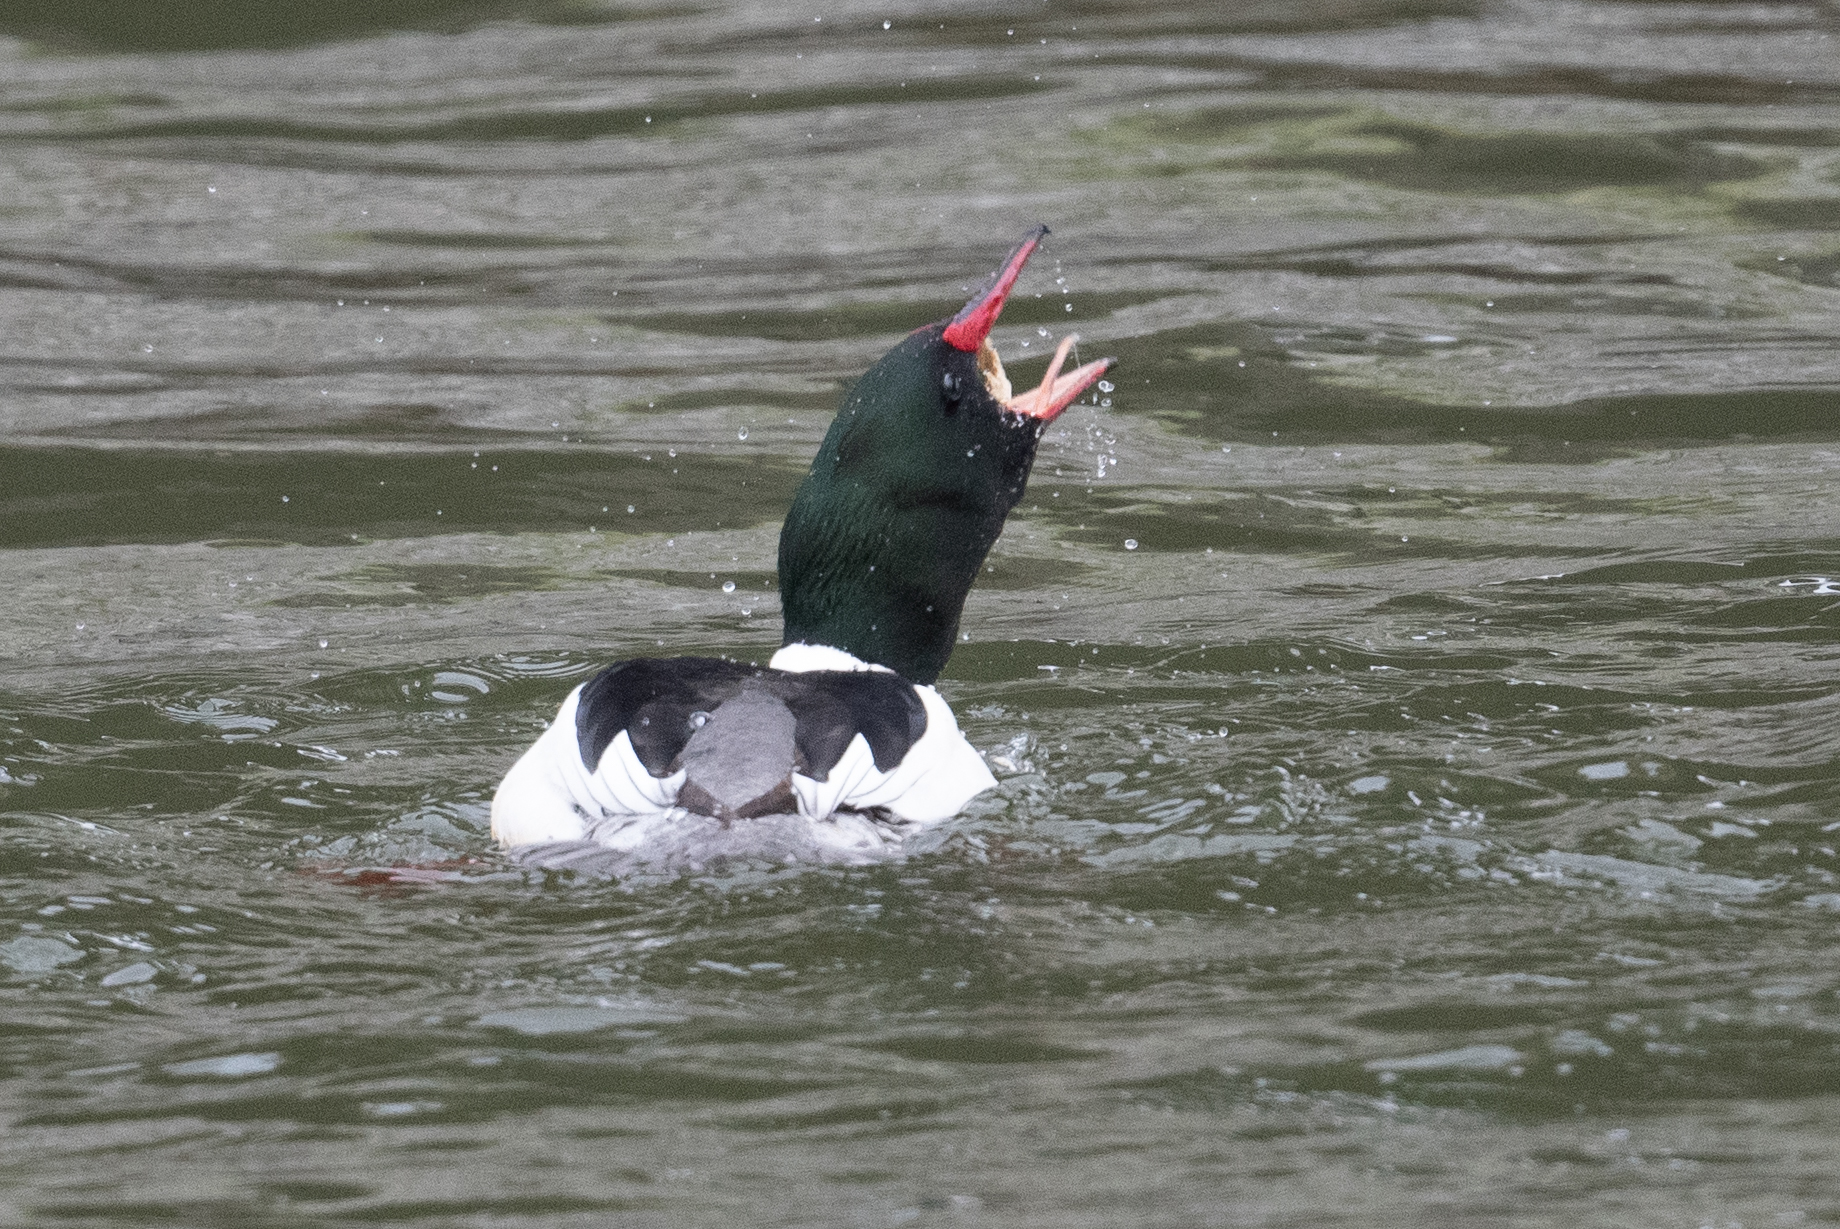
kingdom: Animalia
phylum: Chordata
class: Aves
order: Anseriformes
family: Anatidae
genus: Mergus
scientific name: Mergus merganser
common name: Common merganser
